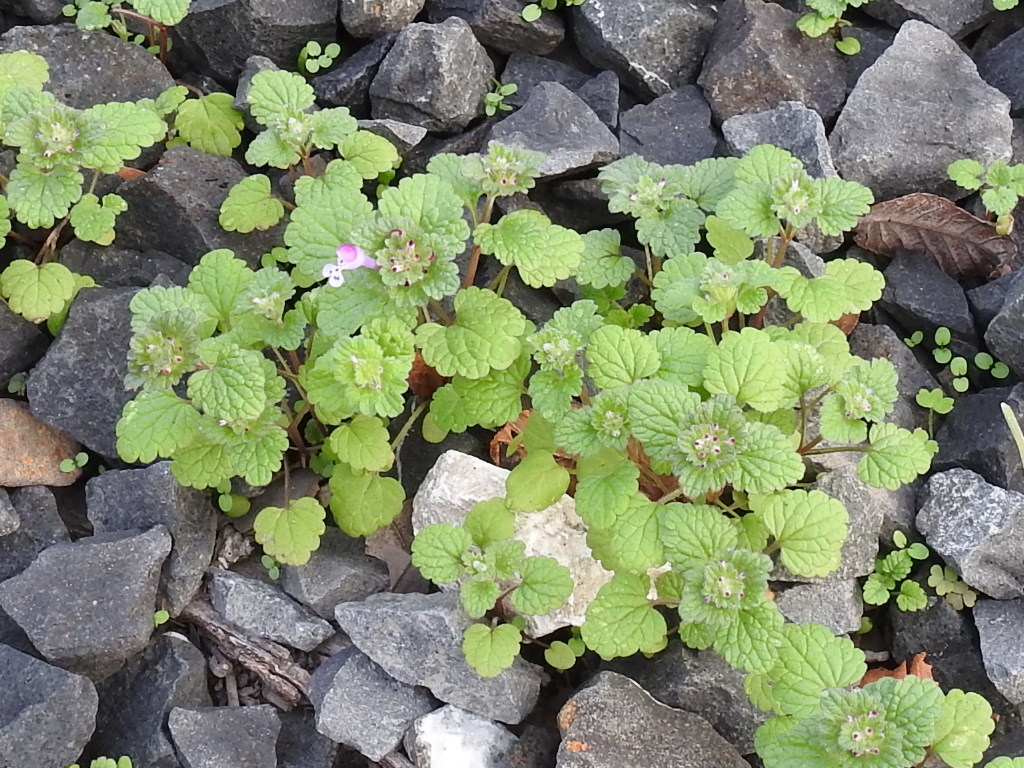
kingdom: Plantae
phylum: Tracheophyta
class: Magnoliopsida
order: Lamiales
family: Lamiaceae
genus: Lamium
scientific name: Lamium amplexicaule
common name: Henbit dead-nettle
